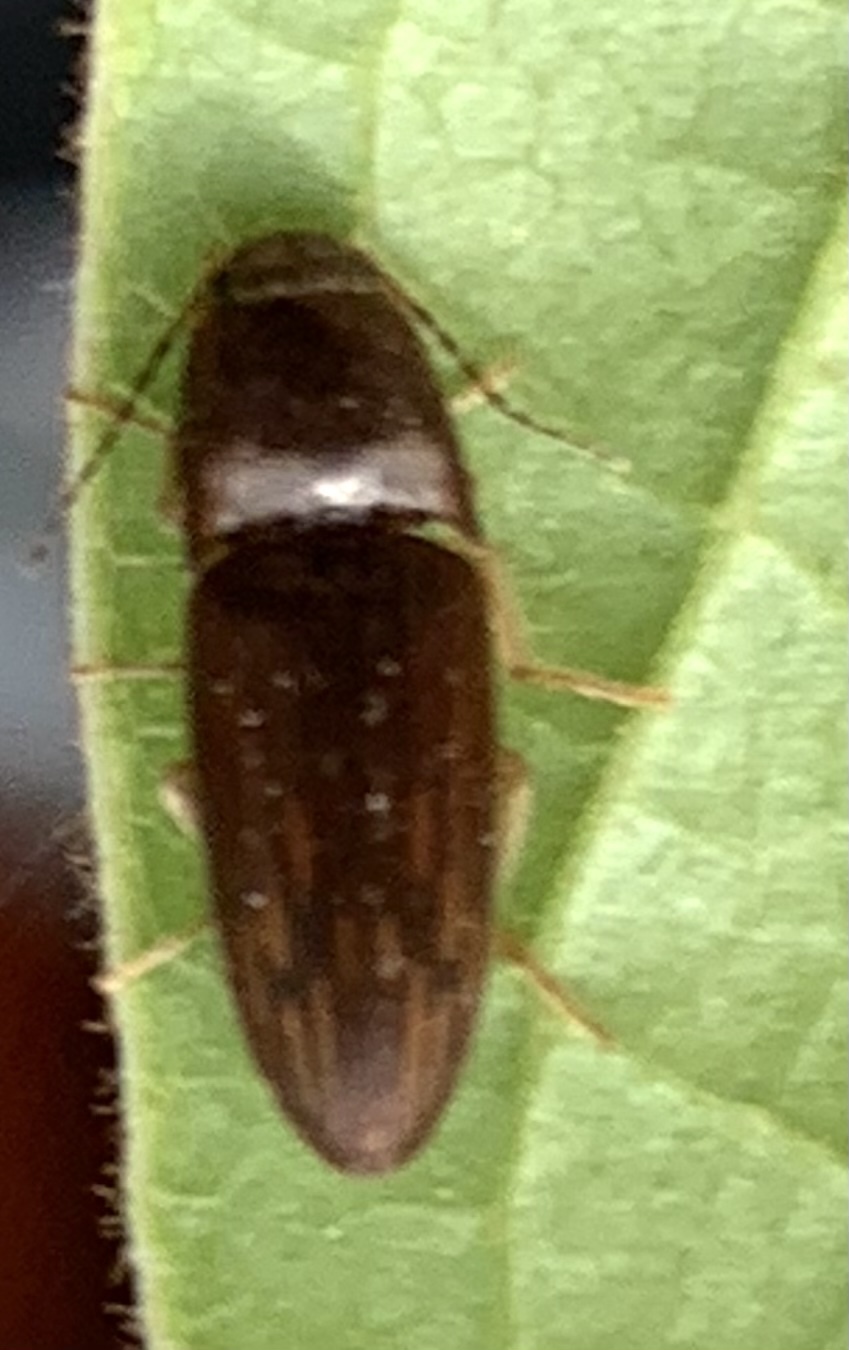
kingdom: Animalia
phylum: Arthropoda
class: Insecta
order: Coleoptera
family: Elateridae
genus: Monocrepidius
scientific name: Monocrepidius
